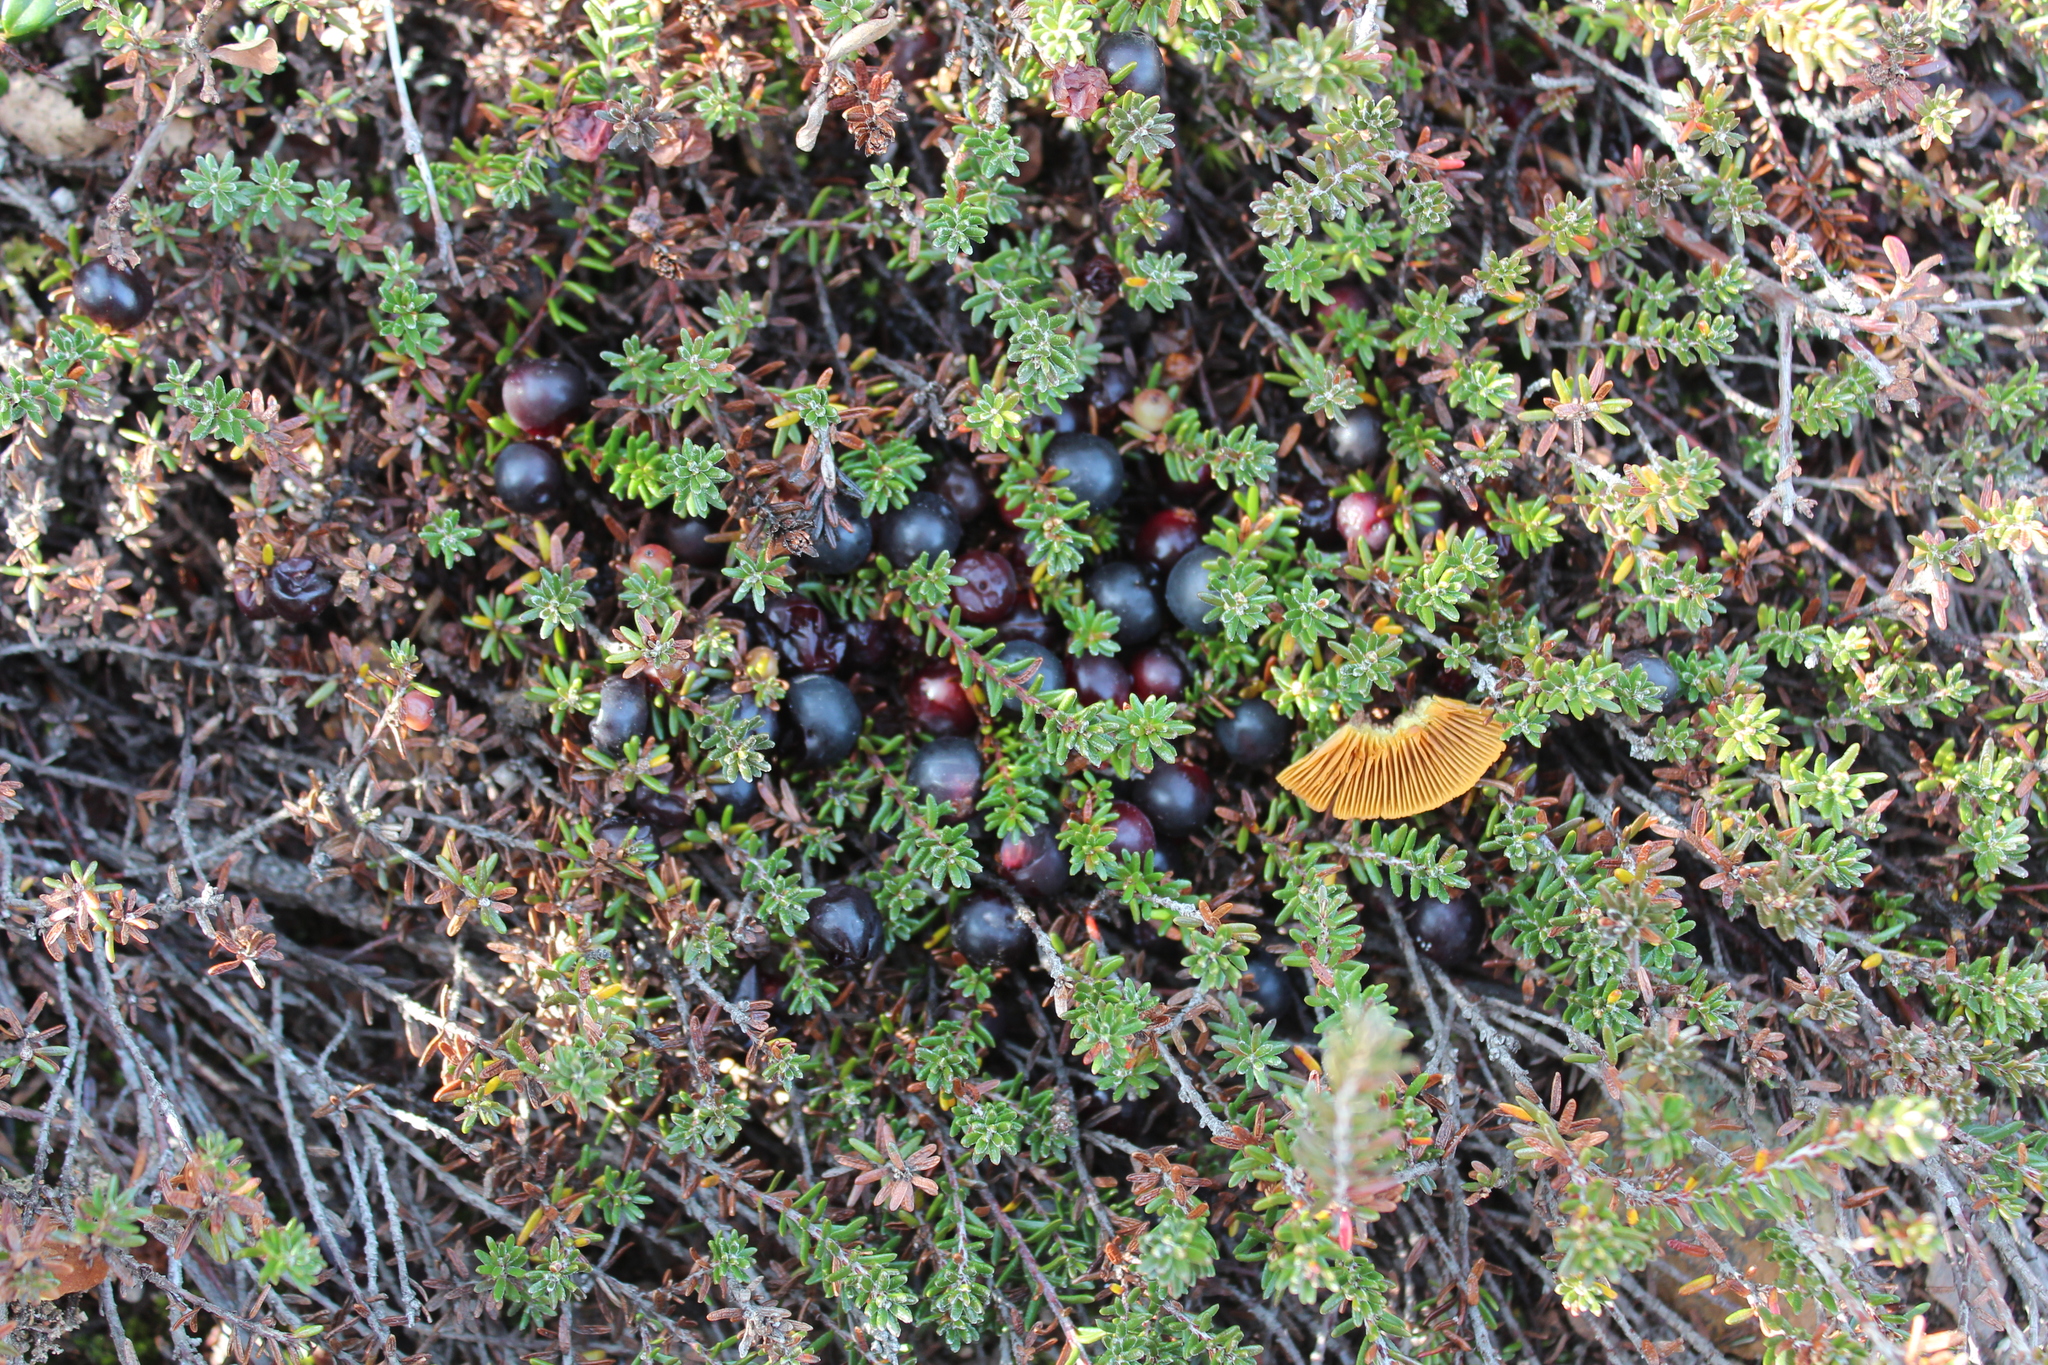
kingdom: Plantae
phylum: Tracheophyta
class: Magnoliopsida
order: Ericales
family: Ericaceae
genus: Empetrum
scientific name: Empetrum nigrum
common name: Black crowberry
